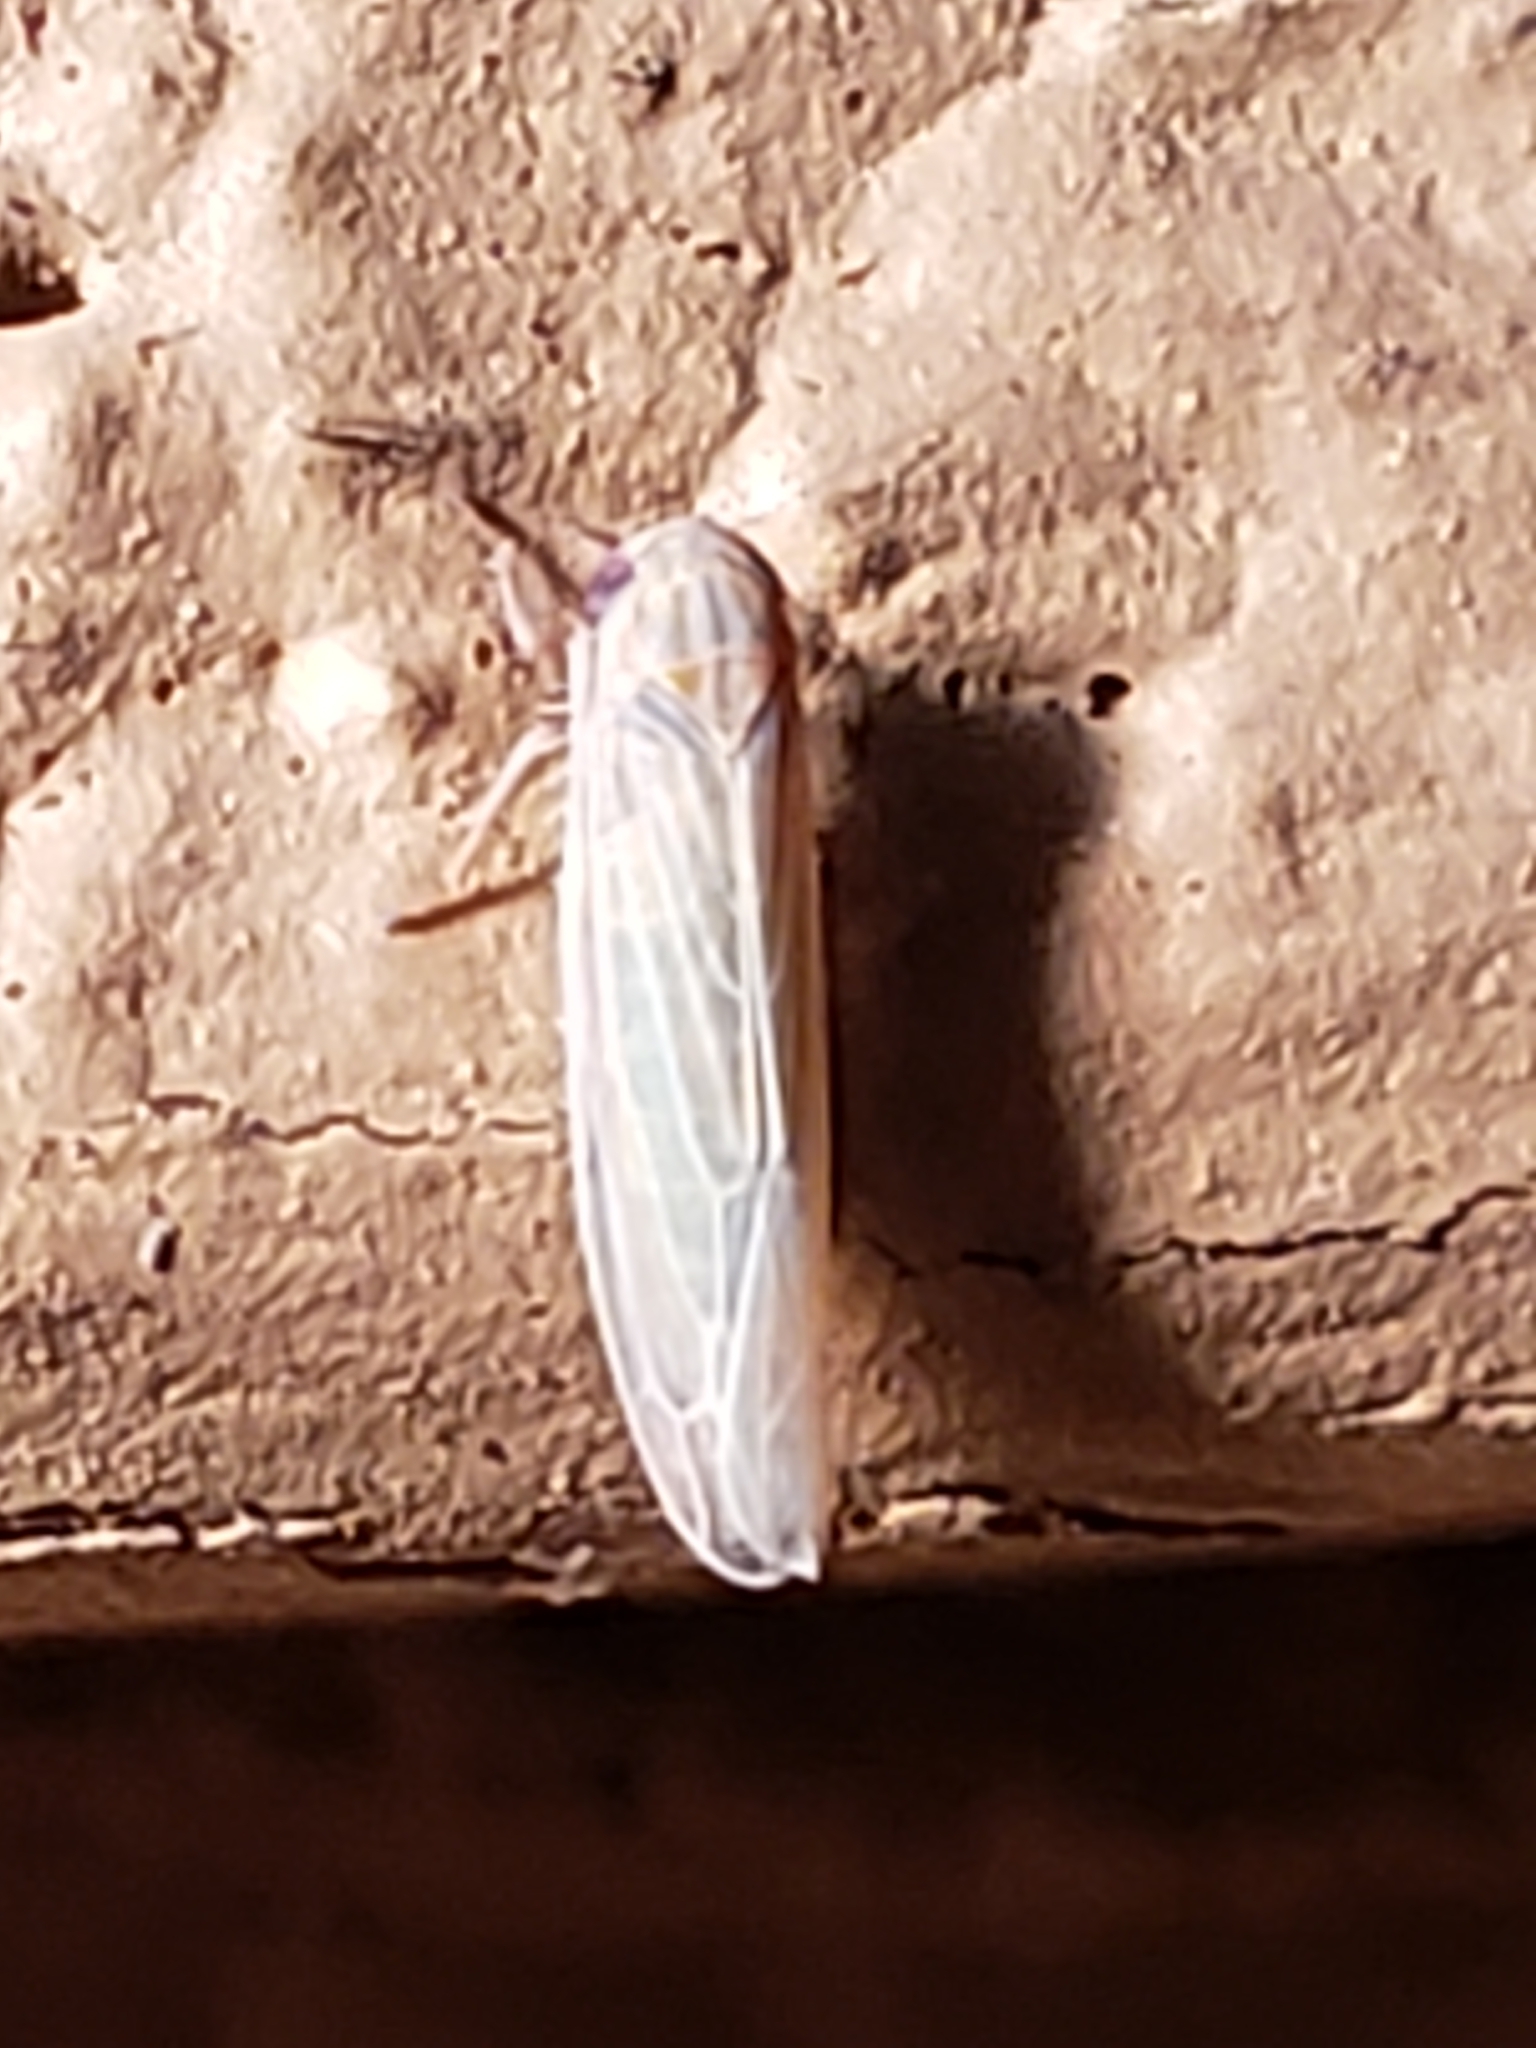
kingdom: Animalia
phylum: Arthropoda
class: Insecta
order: Hemiptera
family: Cicadellidae
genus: Balclutha
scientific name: Balclutha neglecta
